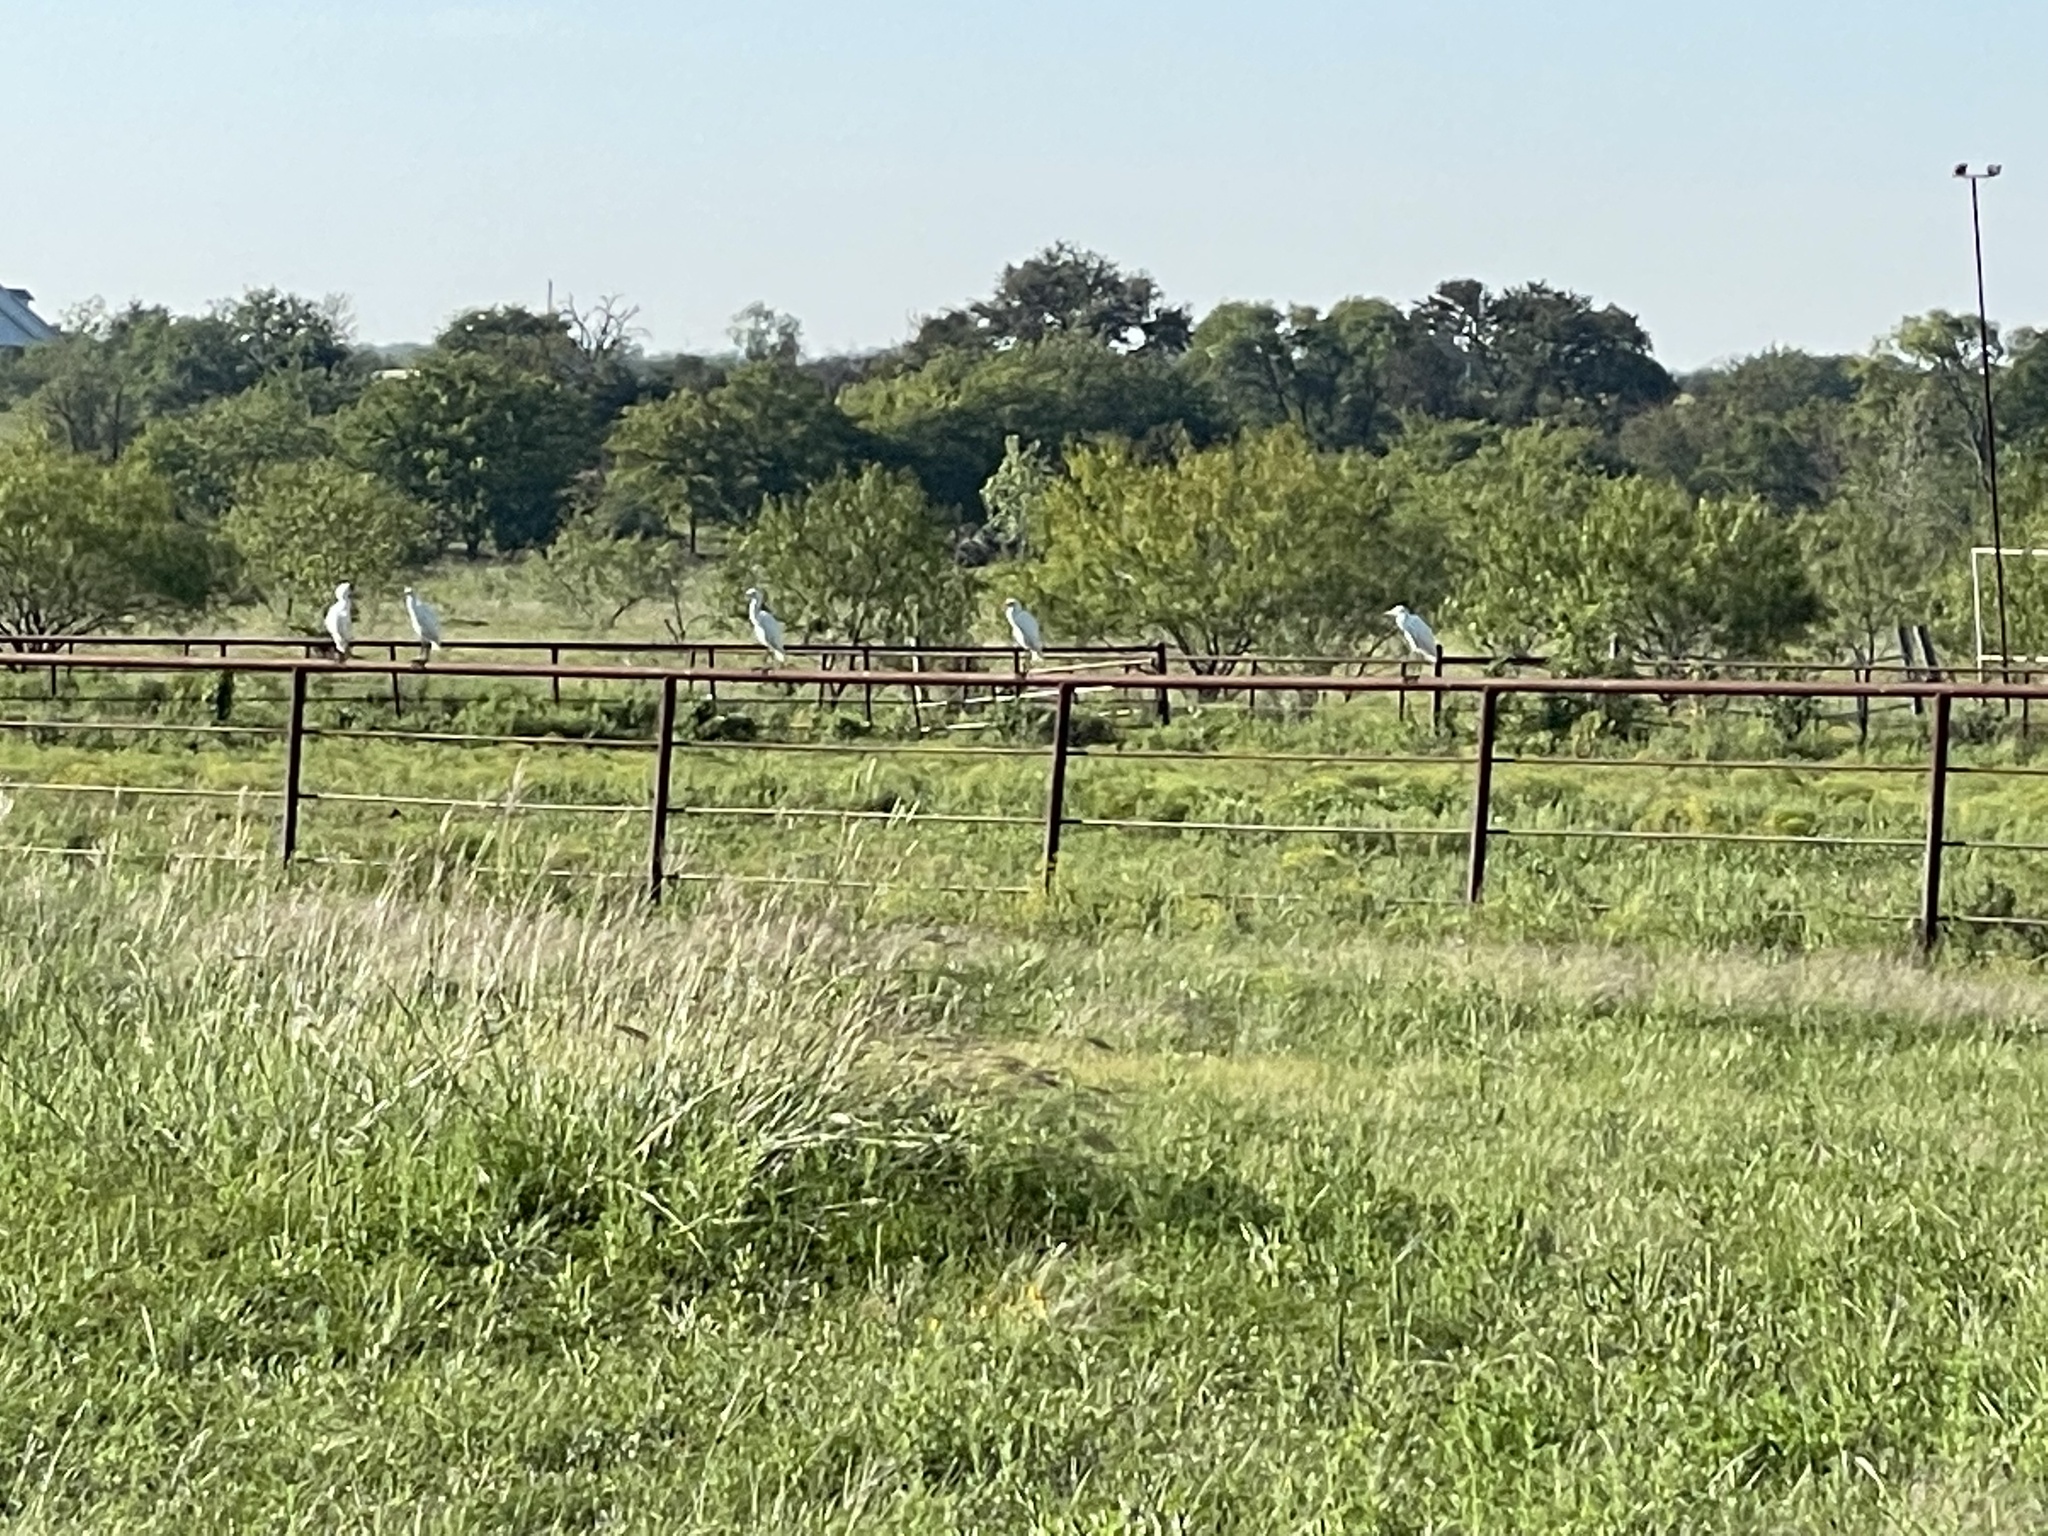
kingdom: Animalia
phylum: Chordata
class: Aves
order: Pelecaniformes
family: Ardeidae
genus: Bubulcus
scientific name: Bubulcus ibis
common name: Cattle egret
